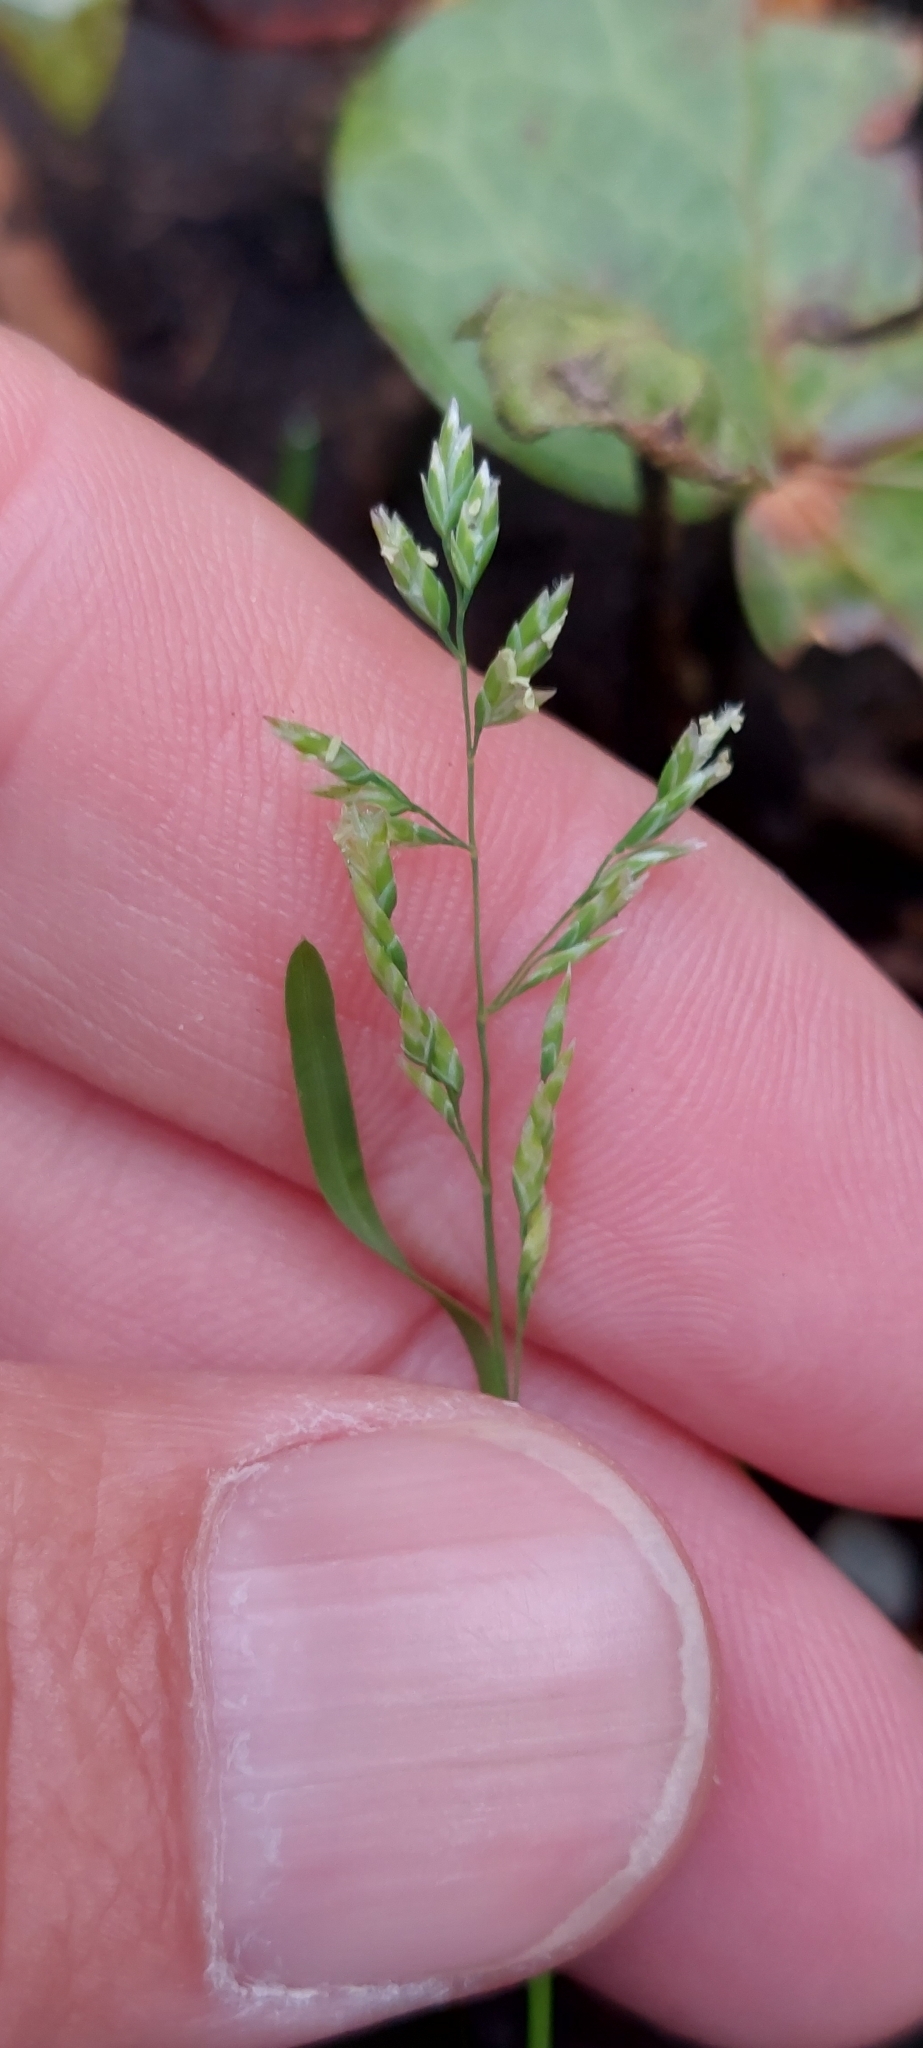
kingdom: Plantae
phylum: Tracheophyta
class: Liliopsida
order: Poales
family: Poaceae
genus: Poa
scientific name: Poa annua
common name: Annual bluegrass
